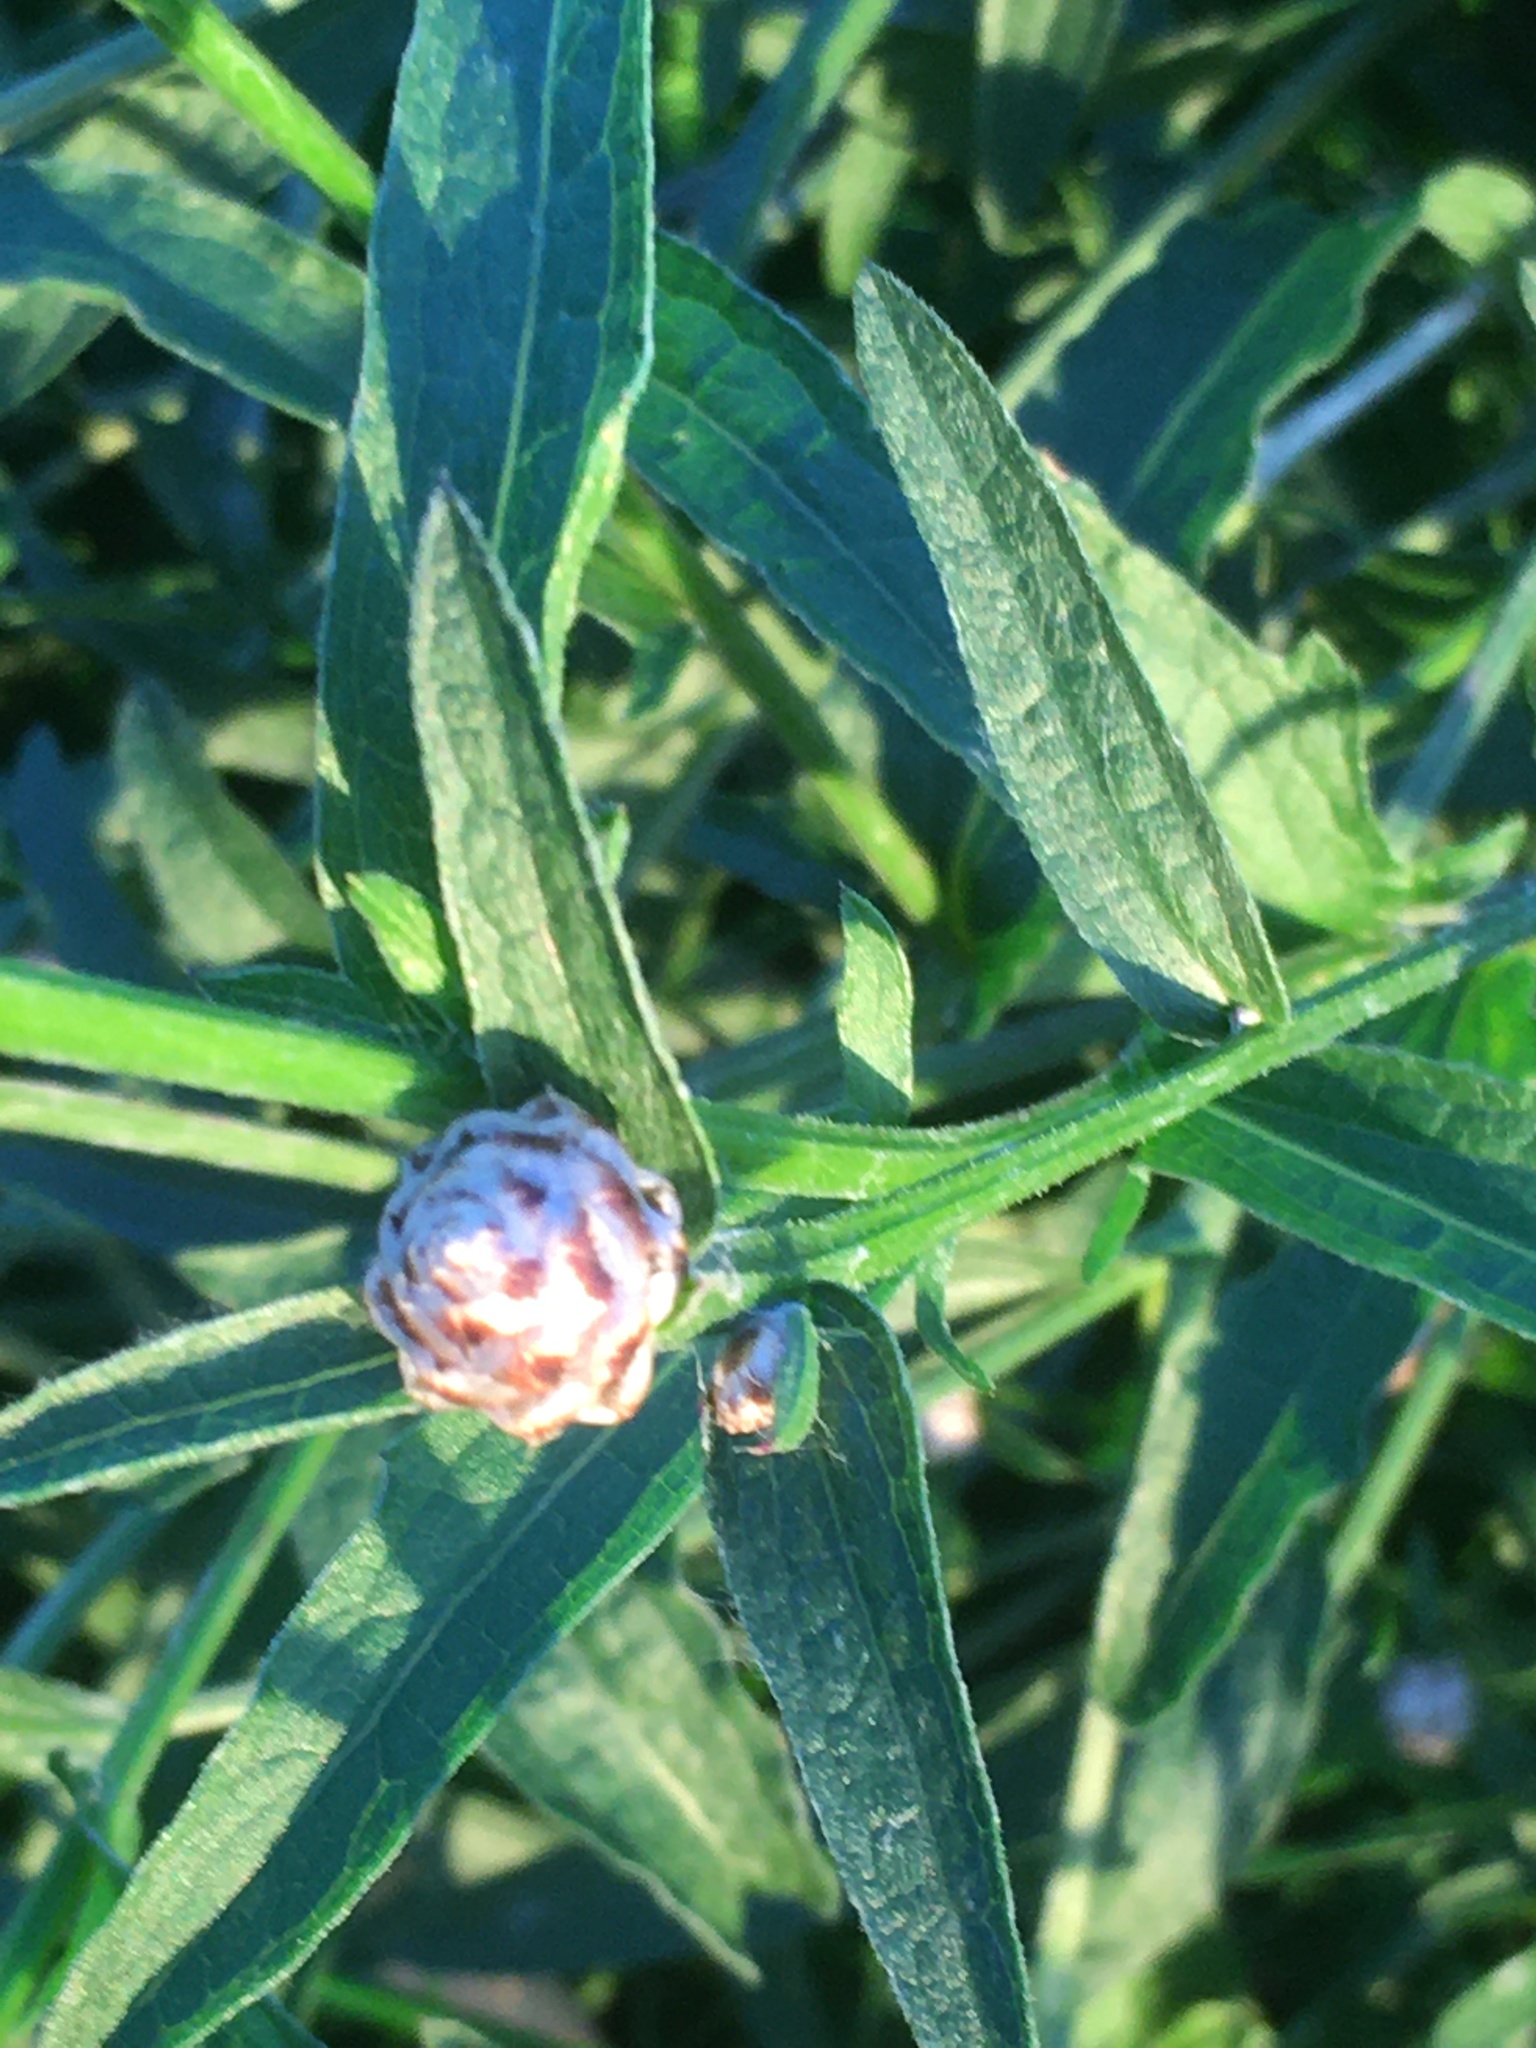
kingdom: Plantae
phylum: Tracheophyta
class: Magnoliopsida
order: Asterales
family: Asteraceae
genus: Centaurea
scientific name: Centaurea jacea
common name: Brown knapweed
